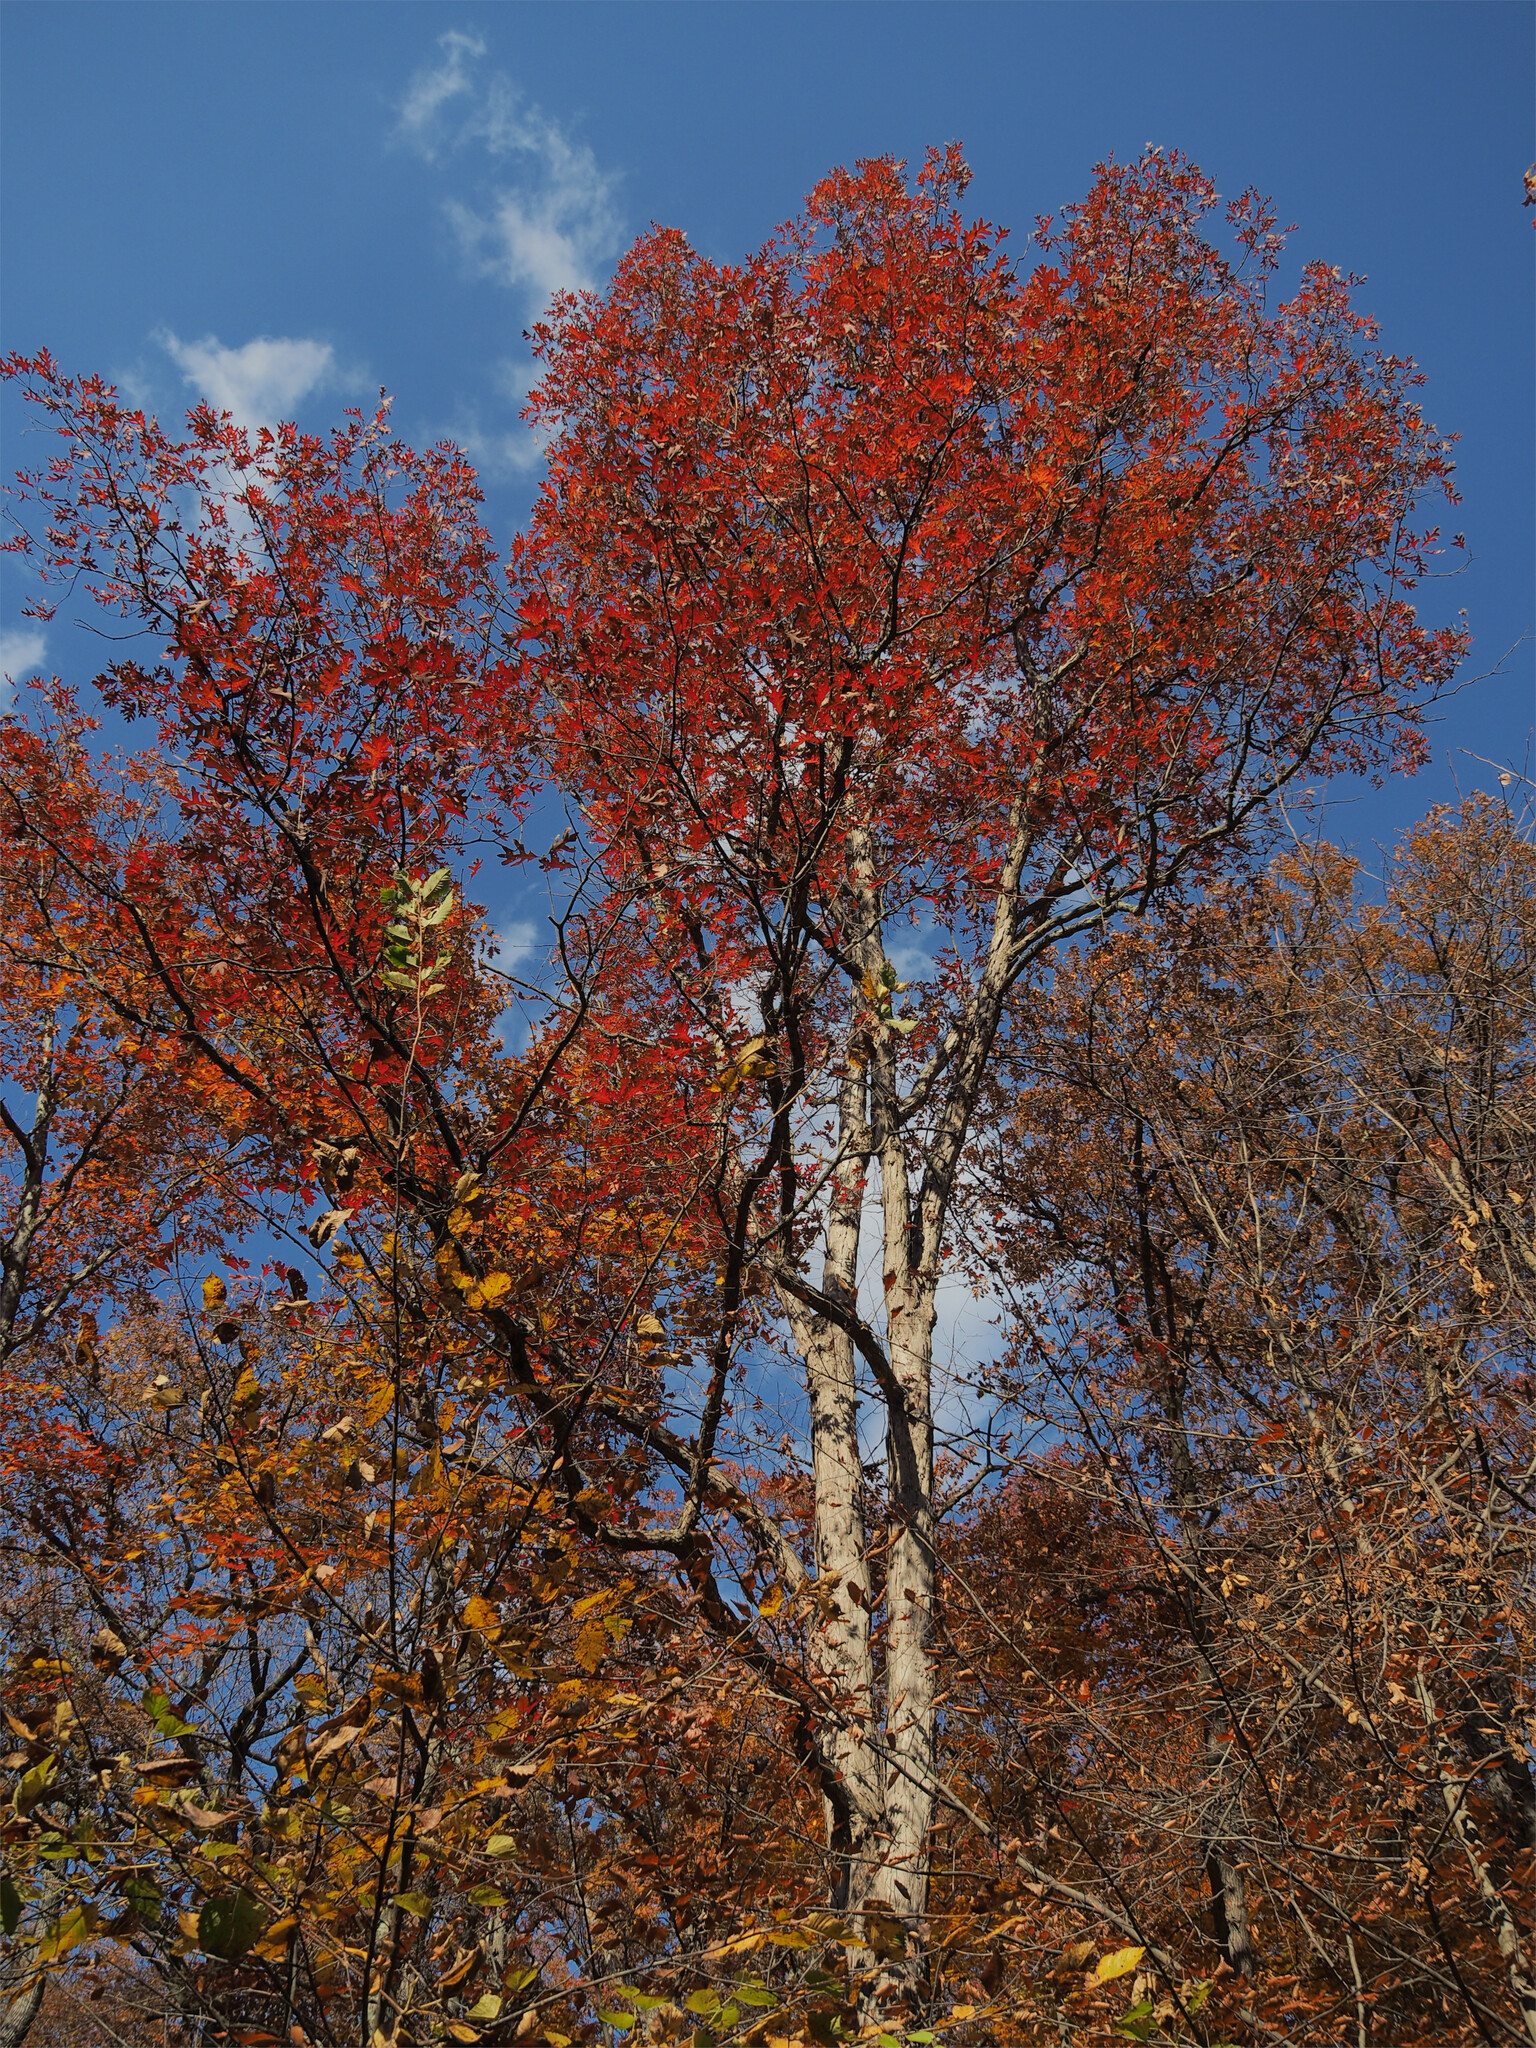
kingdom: Plantae
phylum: Tracheophyta
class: Magnoliopsida
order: Fagales
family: Fagaceae
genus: Quercus
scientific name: Quercus alba
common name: White oak
